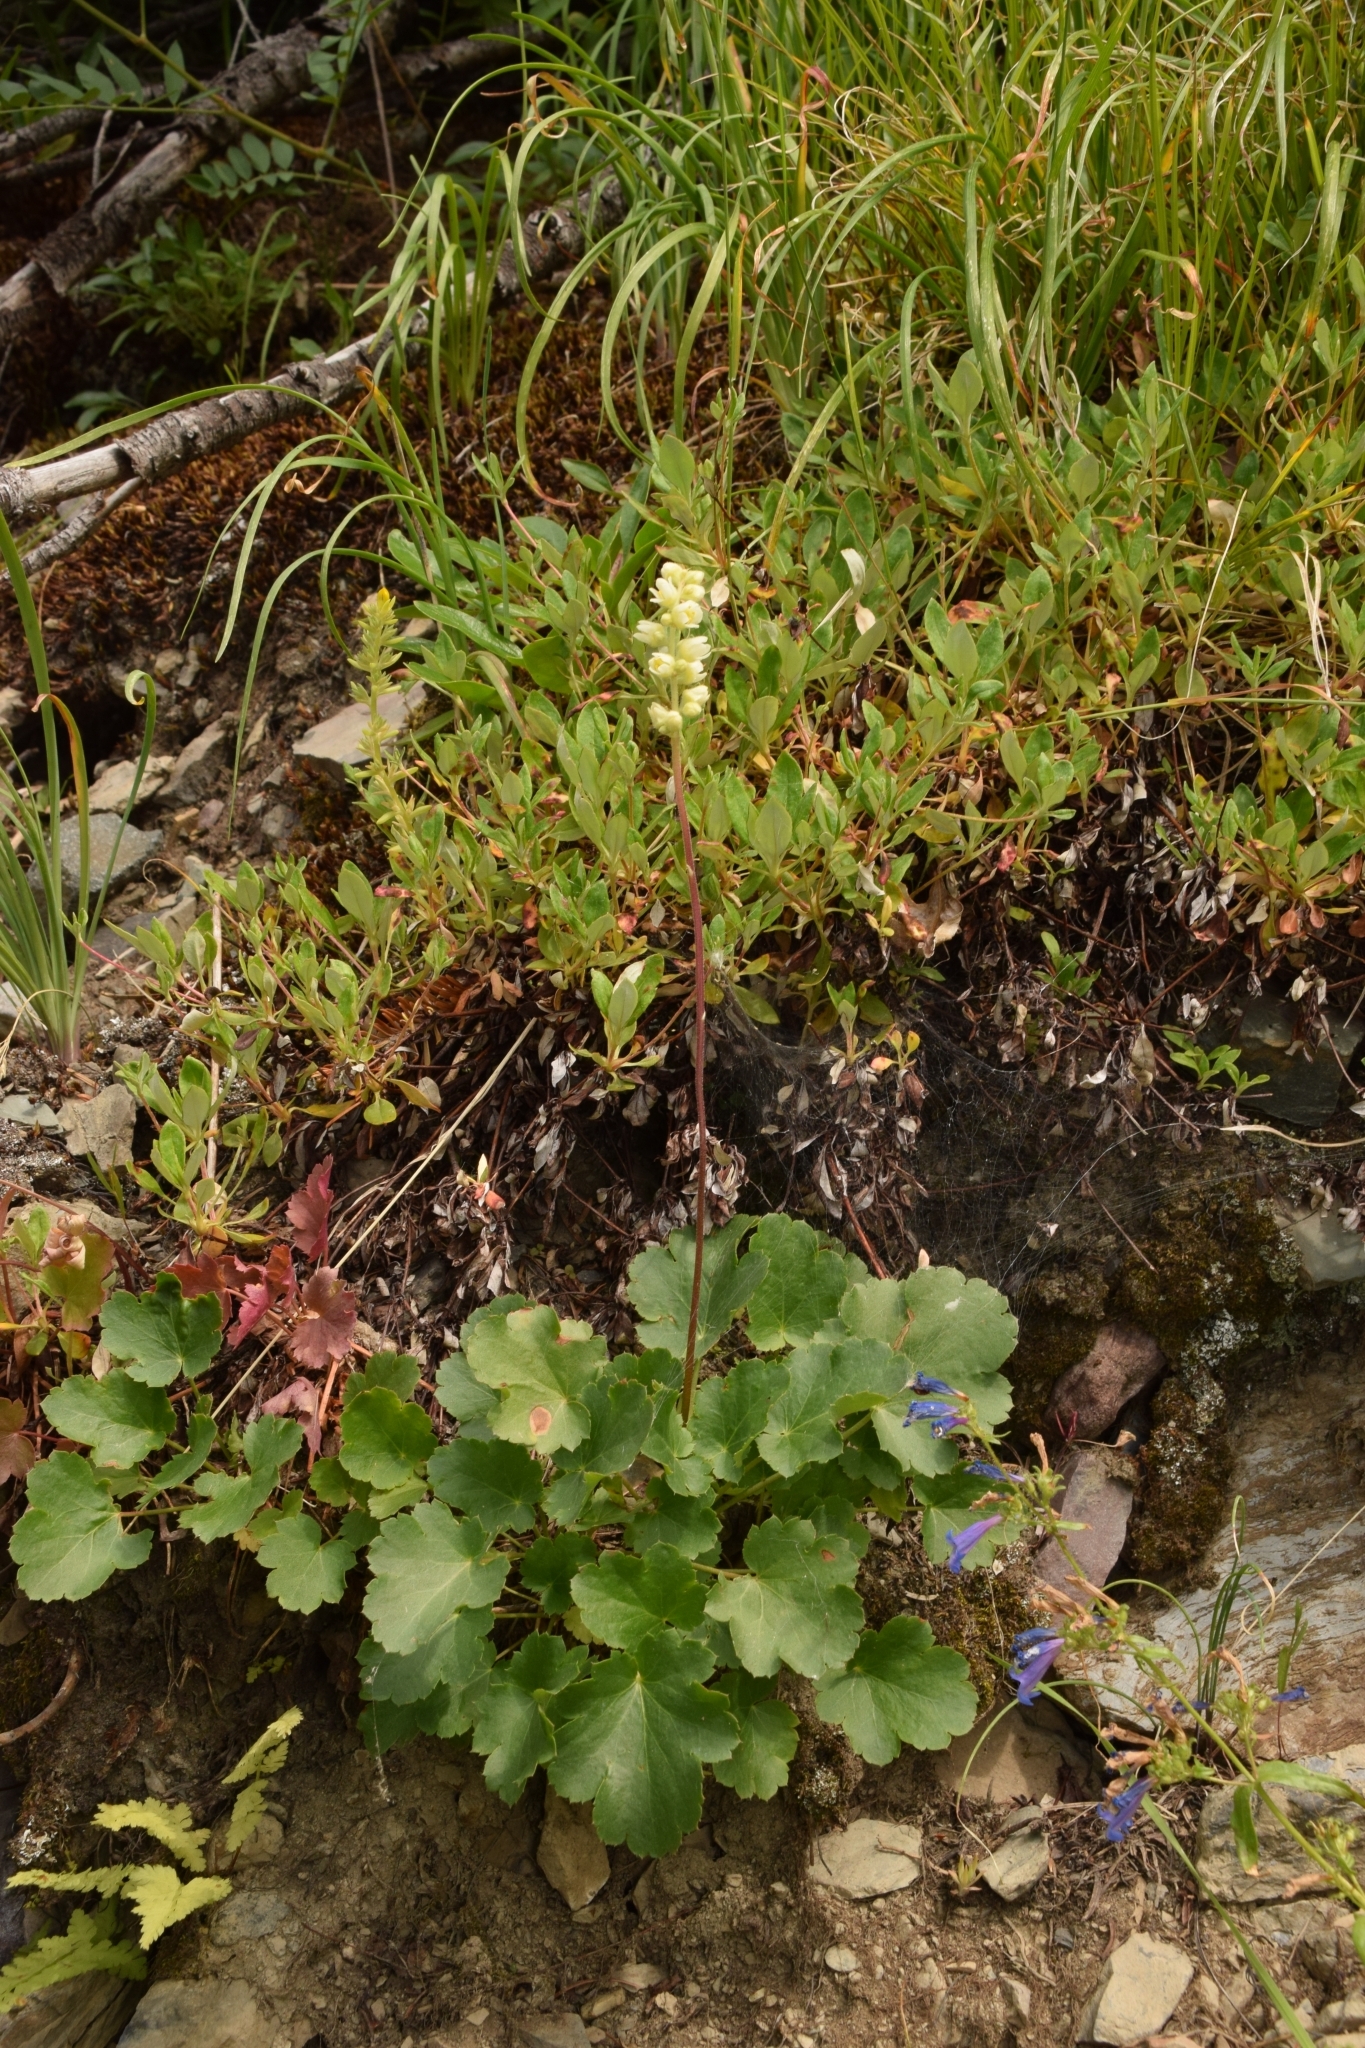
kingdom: Plantae
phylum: Tracheophyta
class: Magnoliopsida
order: Saxifragales
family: Saxifragaceae
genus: Heuchera
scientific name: Heuchera cylindrica
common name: Mat alumroot
